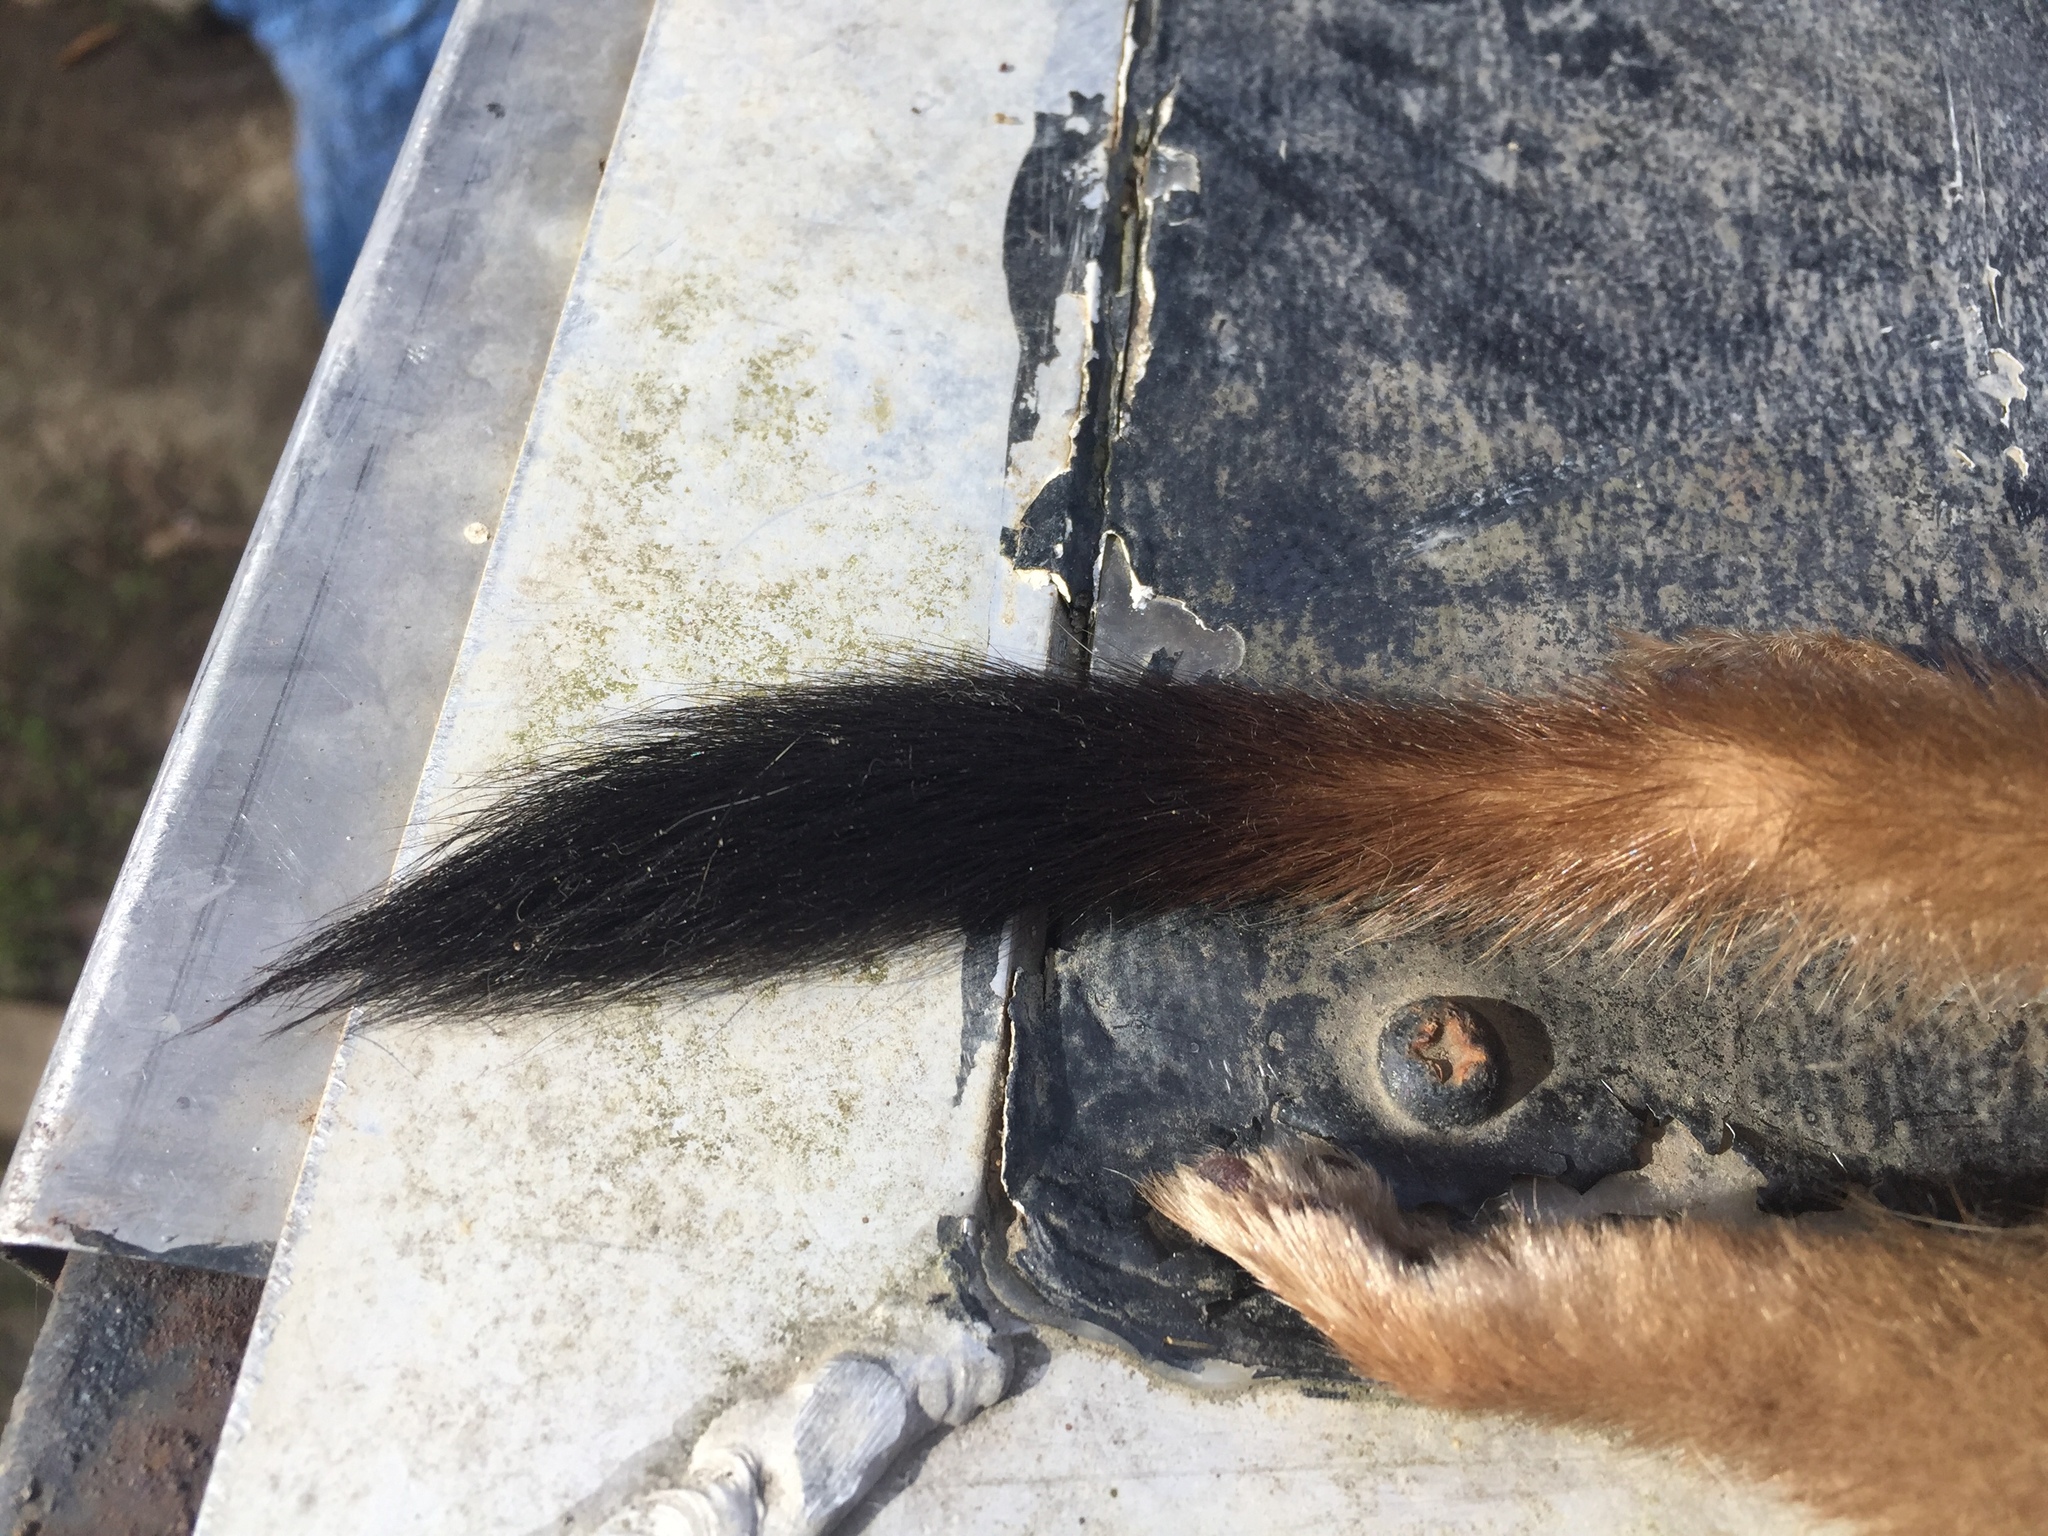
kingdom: Animalia
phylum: Chordata
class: Mammalia
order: Carnivora
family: Mustelidae
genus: Mustela
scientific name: Mustela erminea
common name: Stoat
